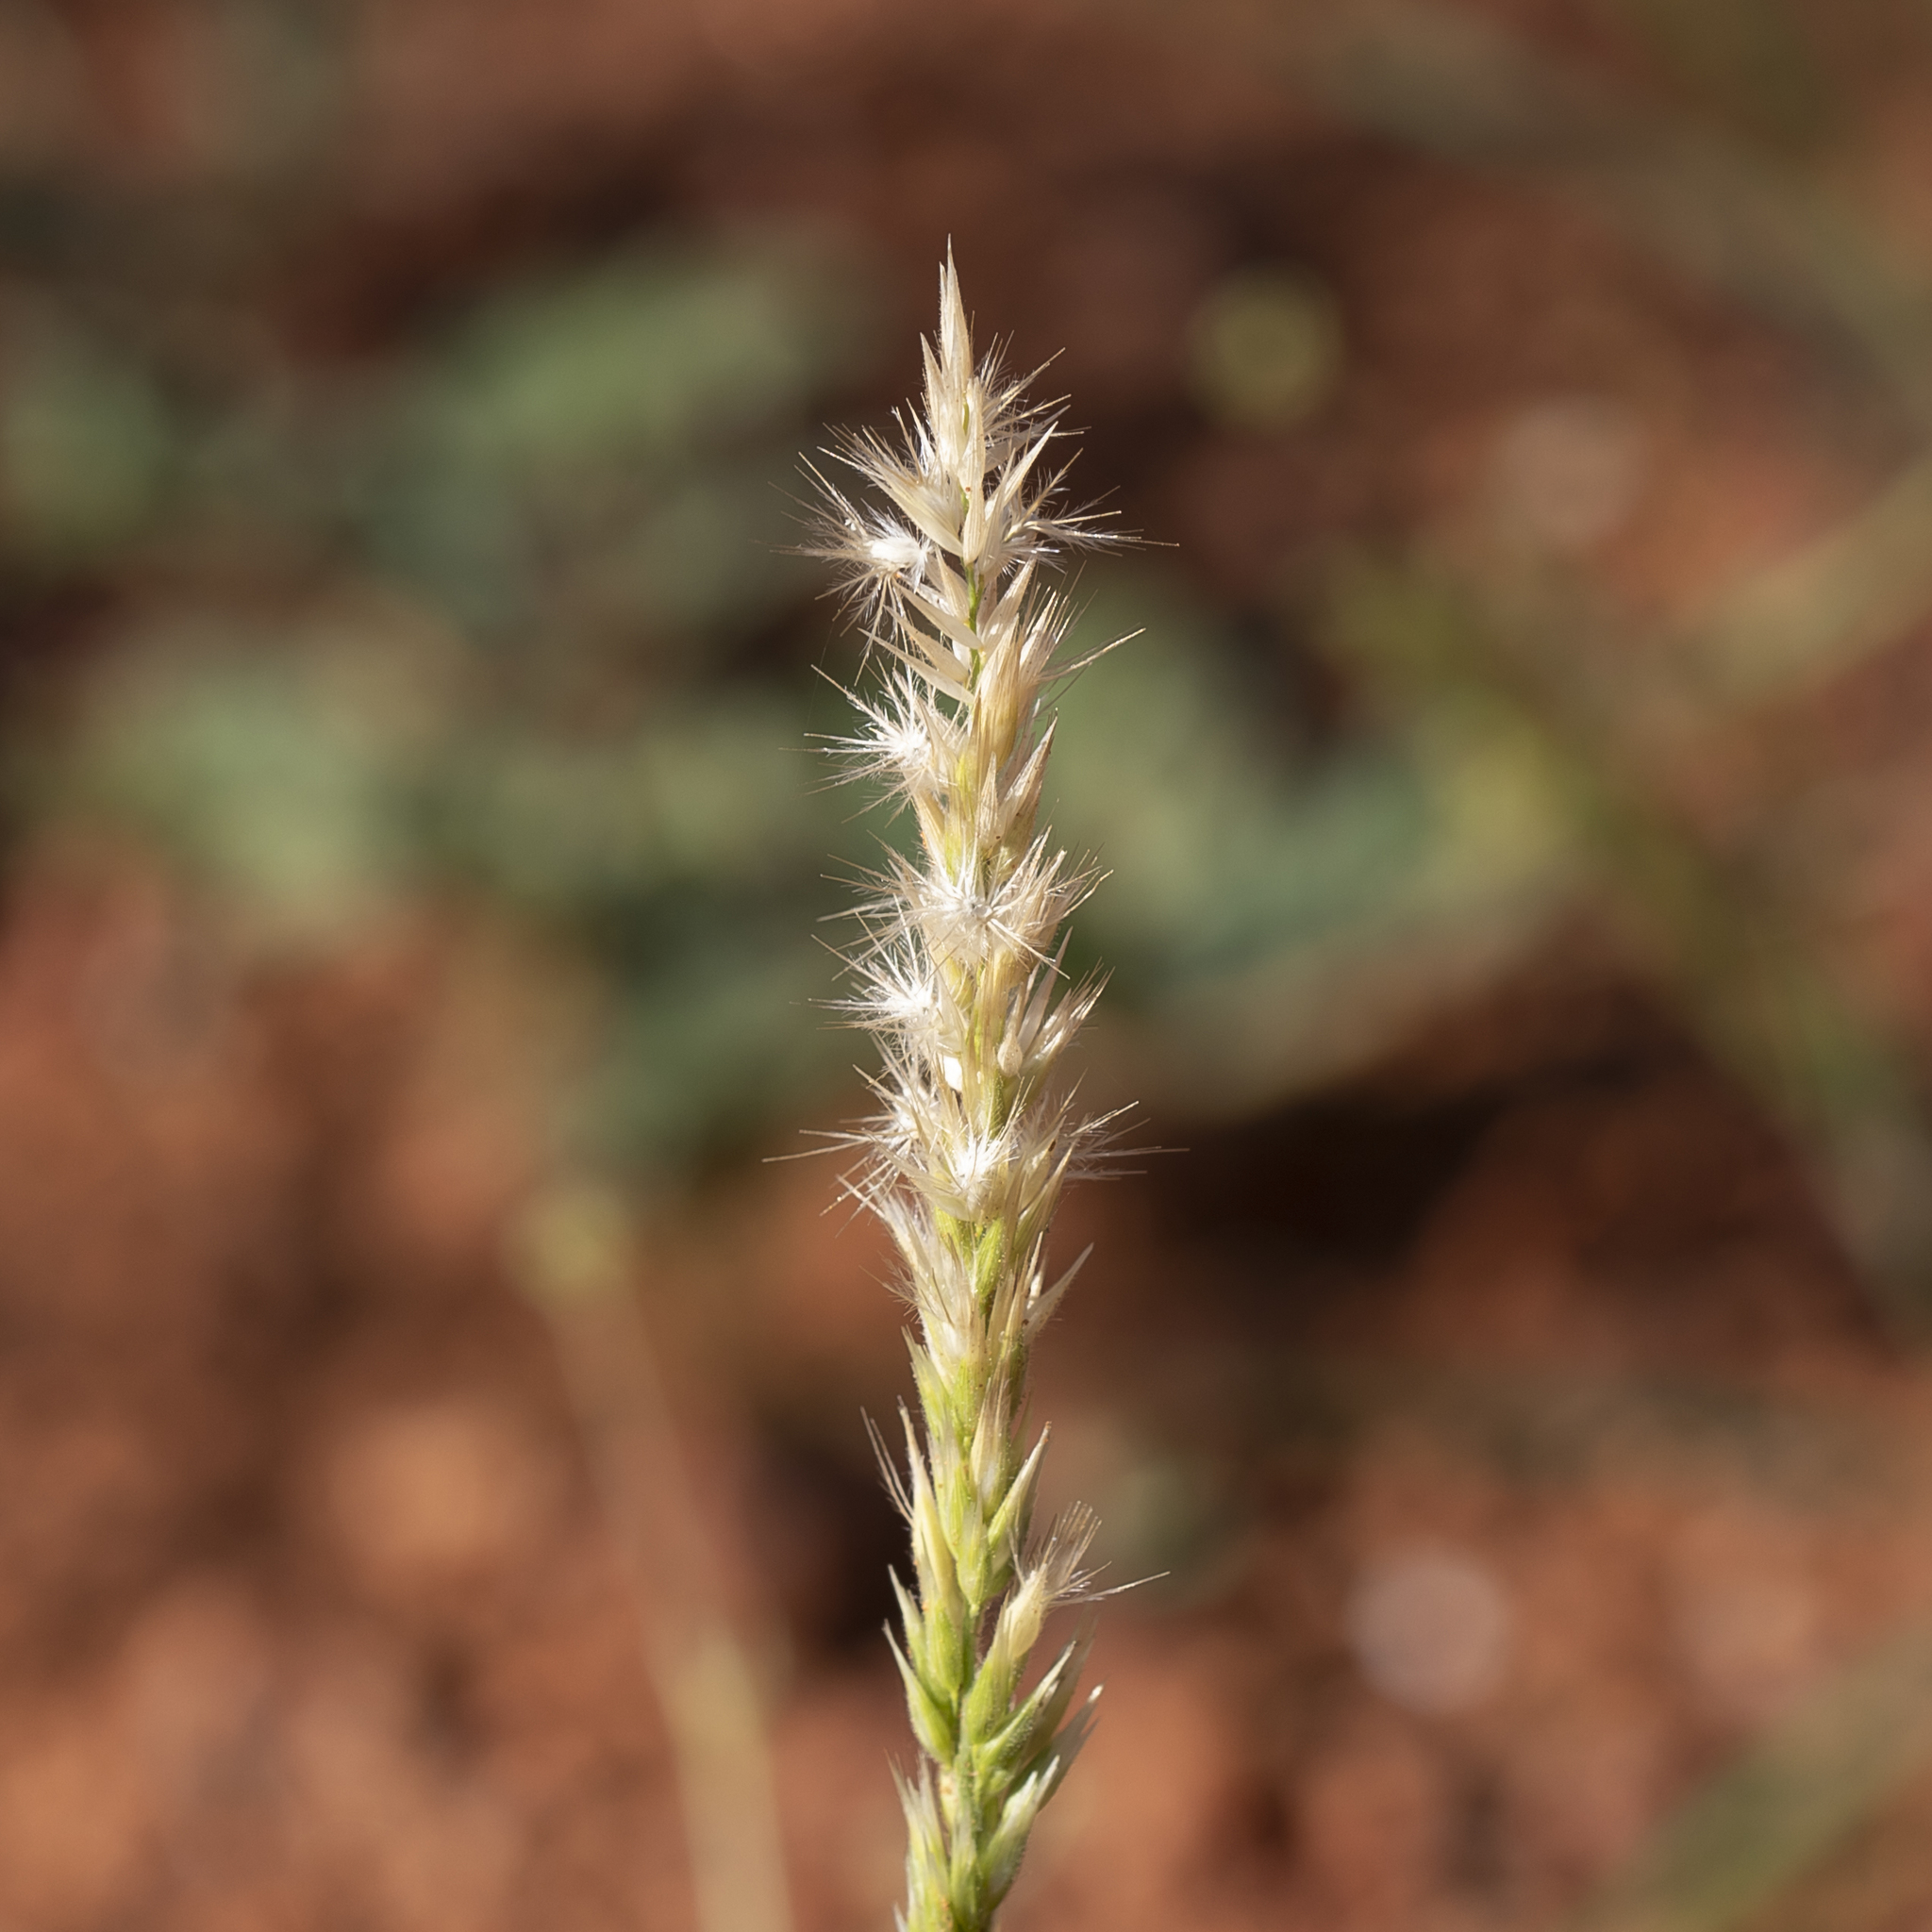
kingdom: Plantae
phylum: Tracheophyta
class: Liliopsida
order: Poales
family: Poaceae
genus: Enneapogon
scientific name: Enneapogon polyphyllus
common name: Leafy nineawn
